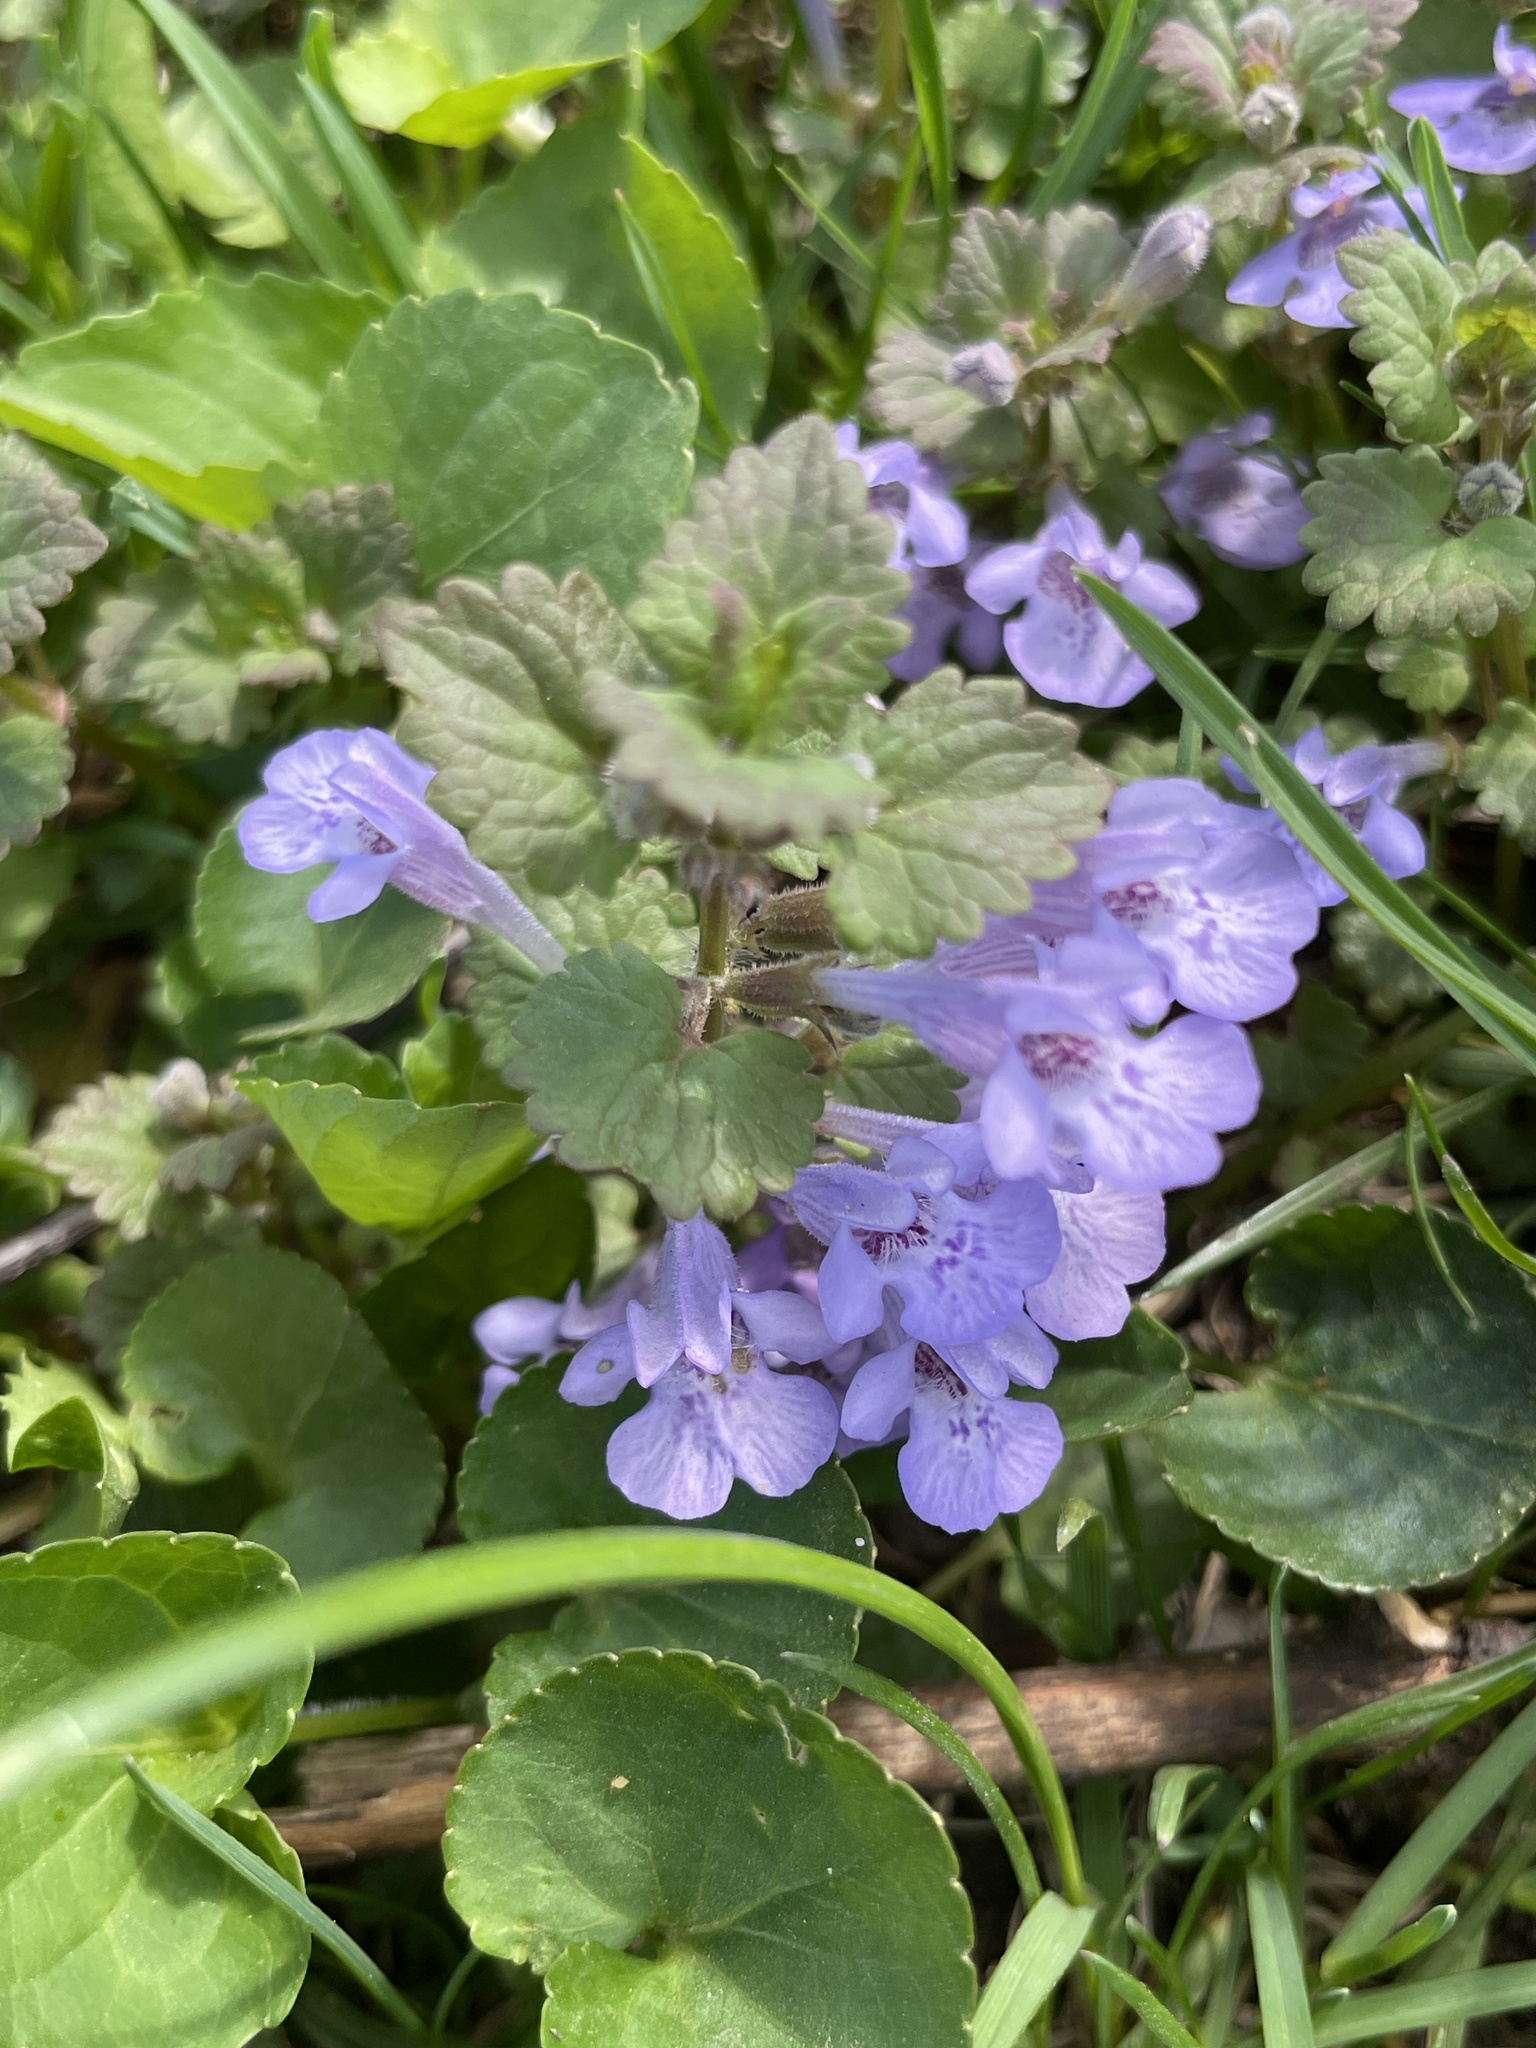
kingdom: Plantae
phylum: Tracheophyta
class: Magnoliopsida
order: Lamiales
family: Lamiaceae
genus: Glechoma
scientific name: Glechoma hederacea
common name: Ground ivy
